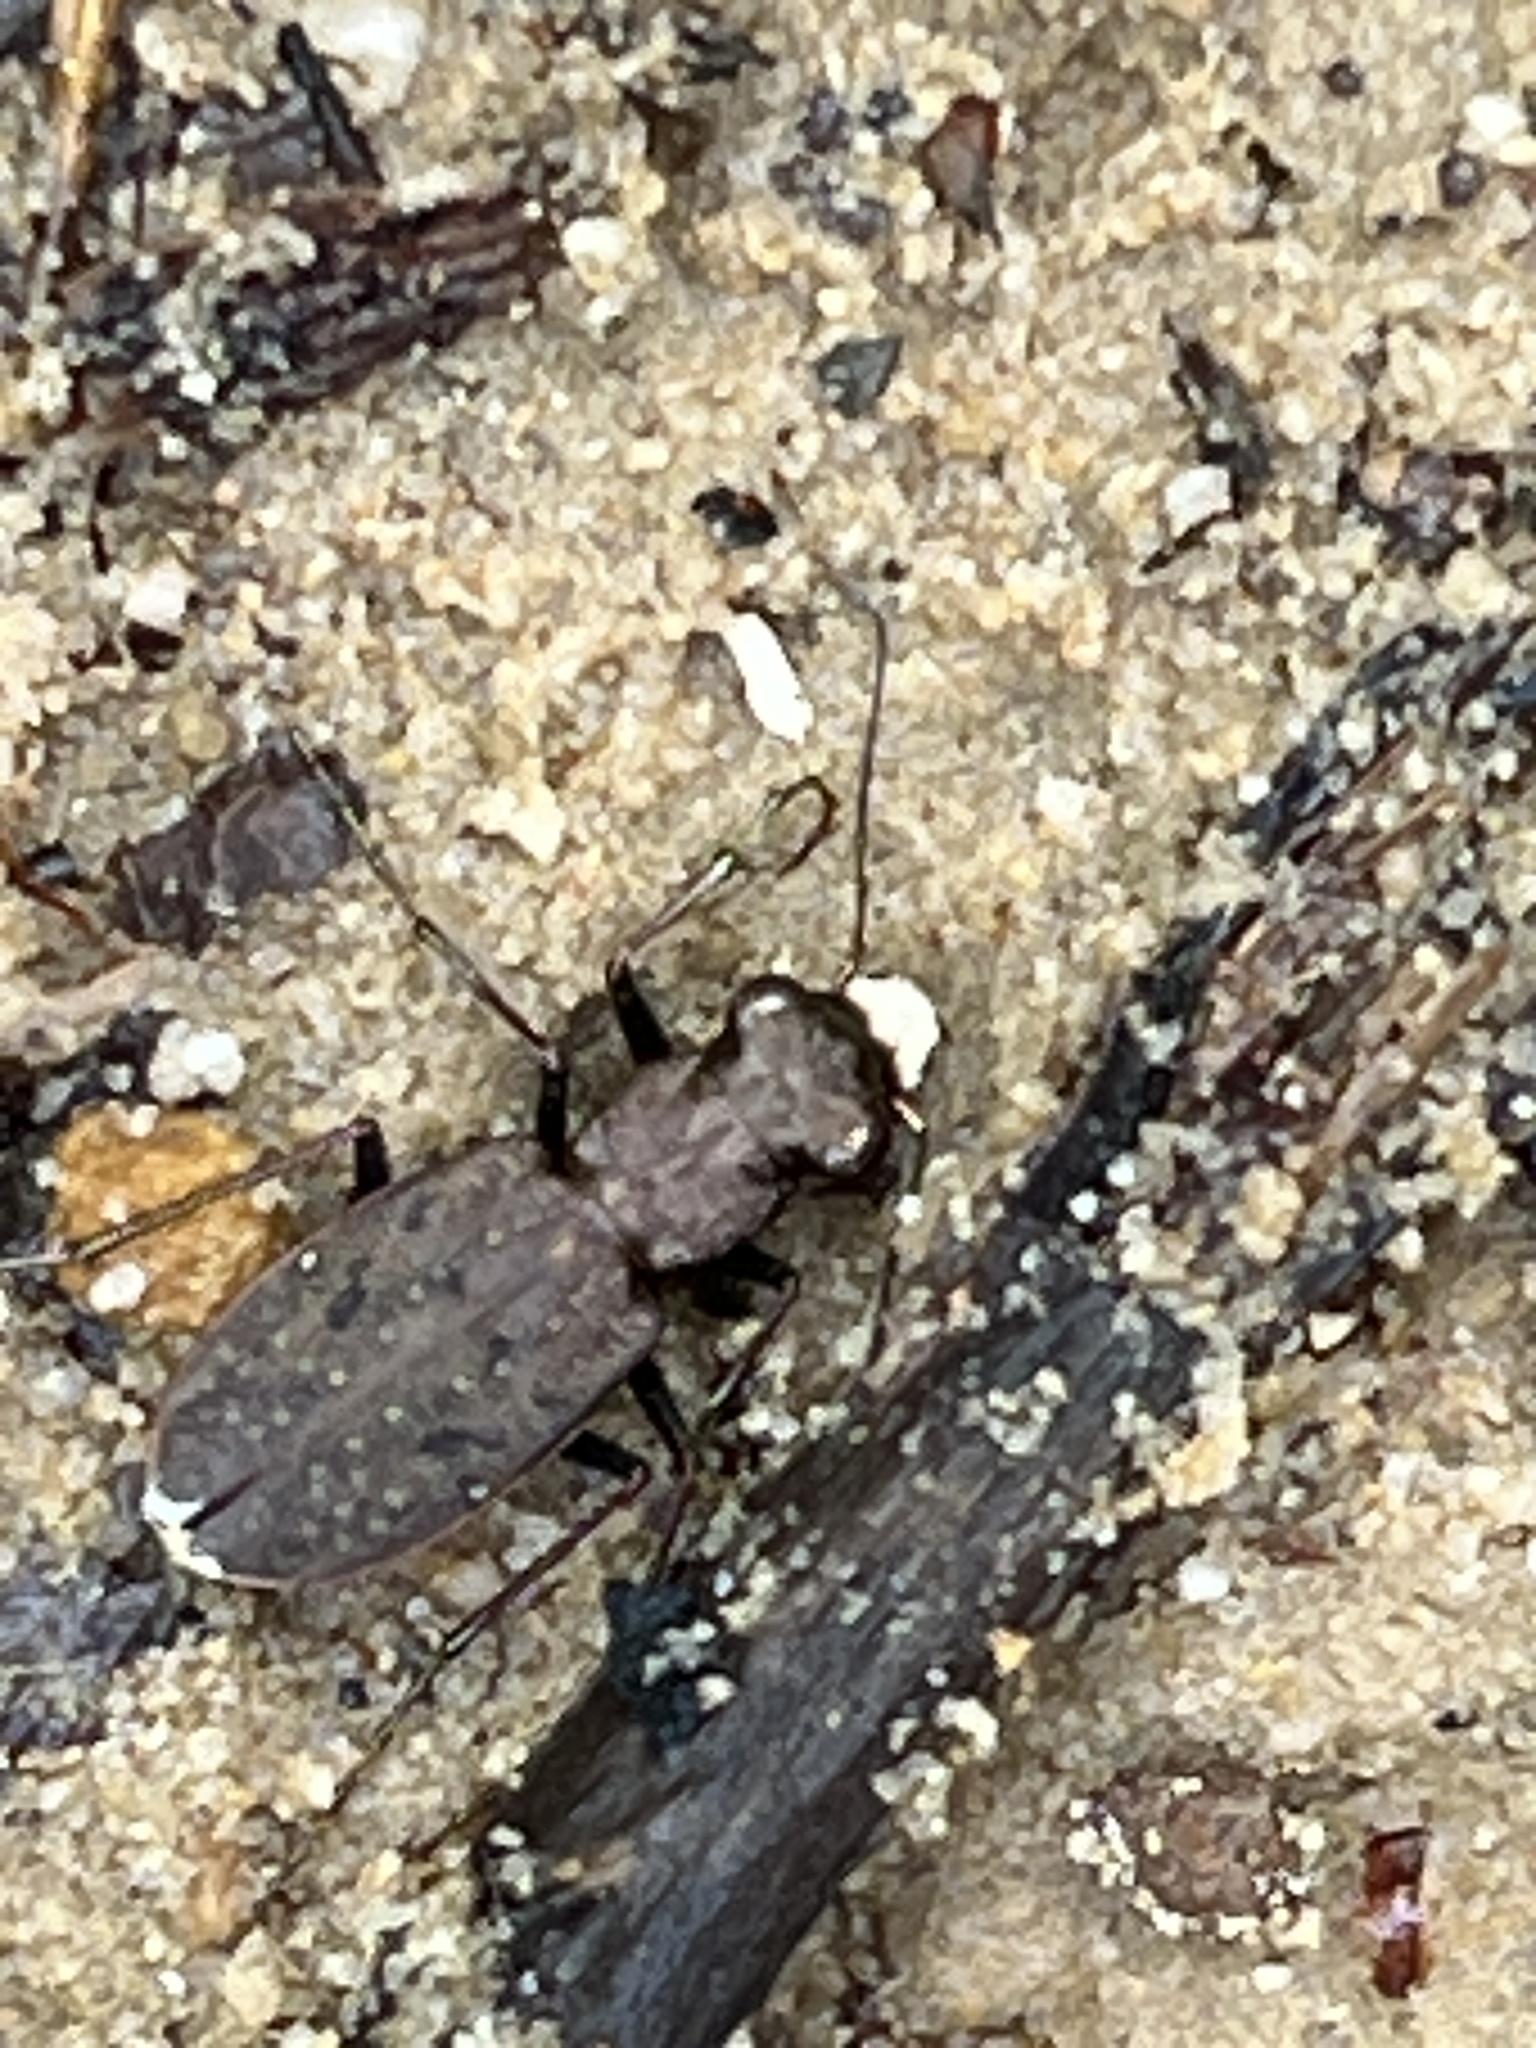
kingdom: Animalia
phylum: Arthropoda
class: Insecta
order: Coleoptera
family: Carabidae
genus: Cylindera
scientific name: Cylindera unipunctata
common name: One-spotted tiger beetle
